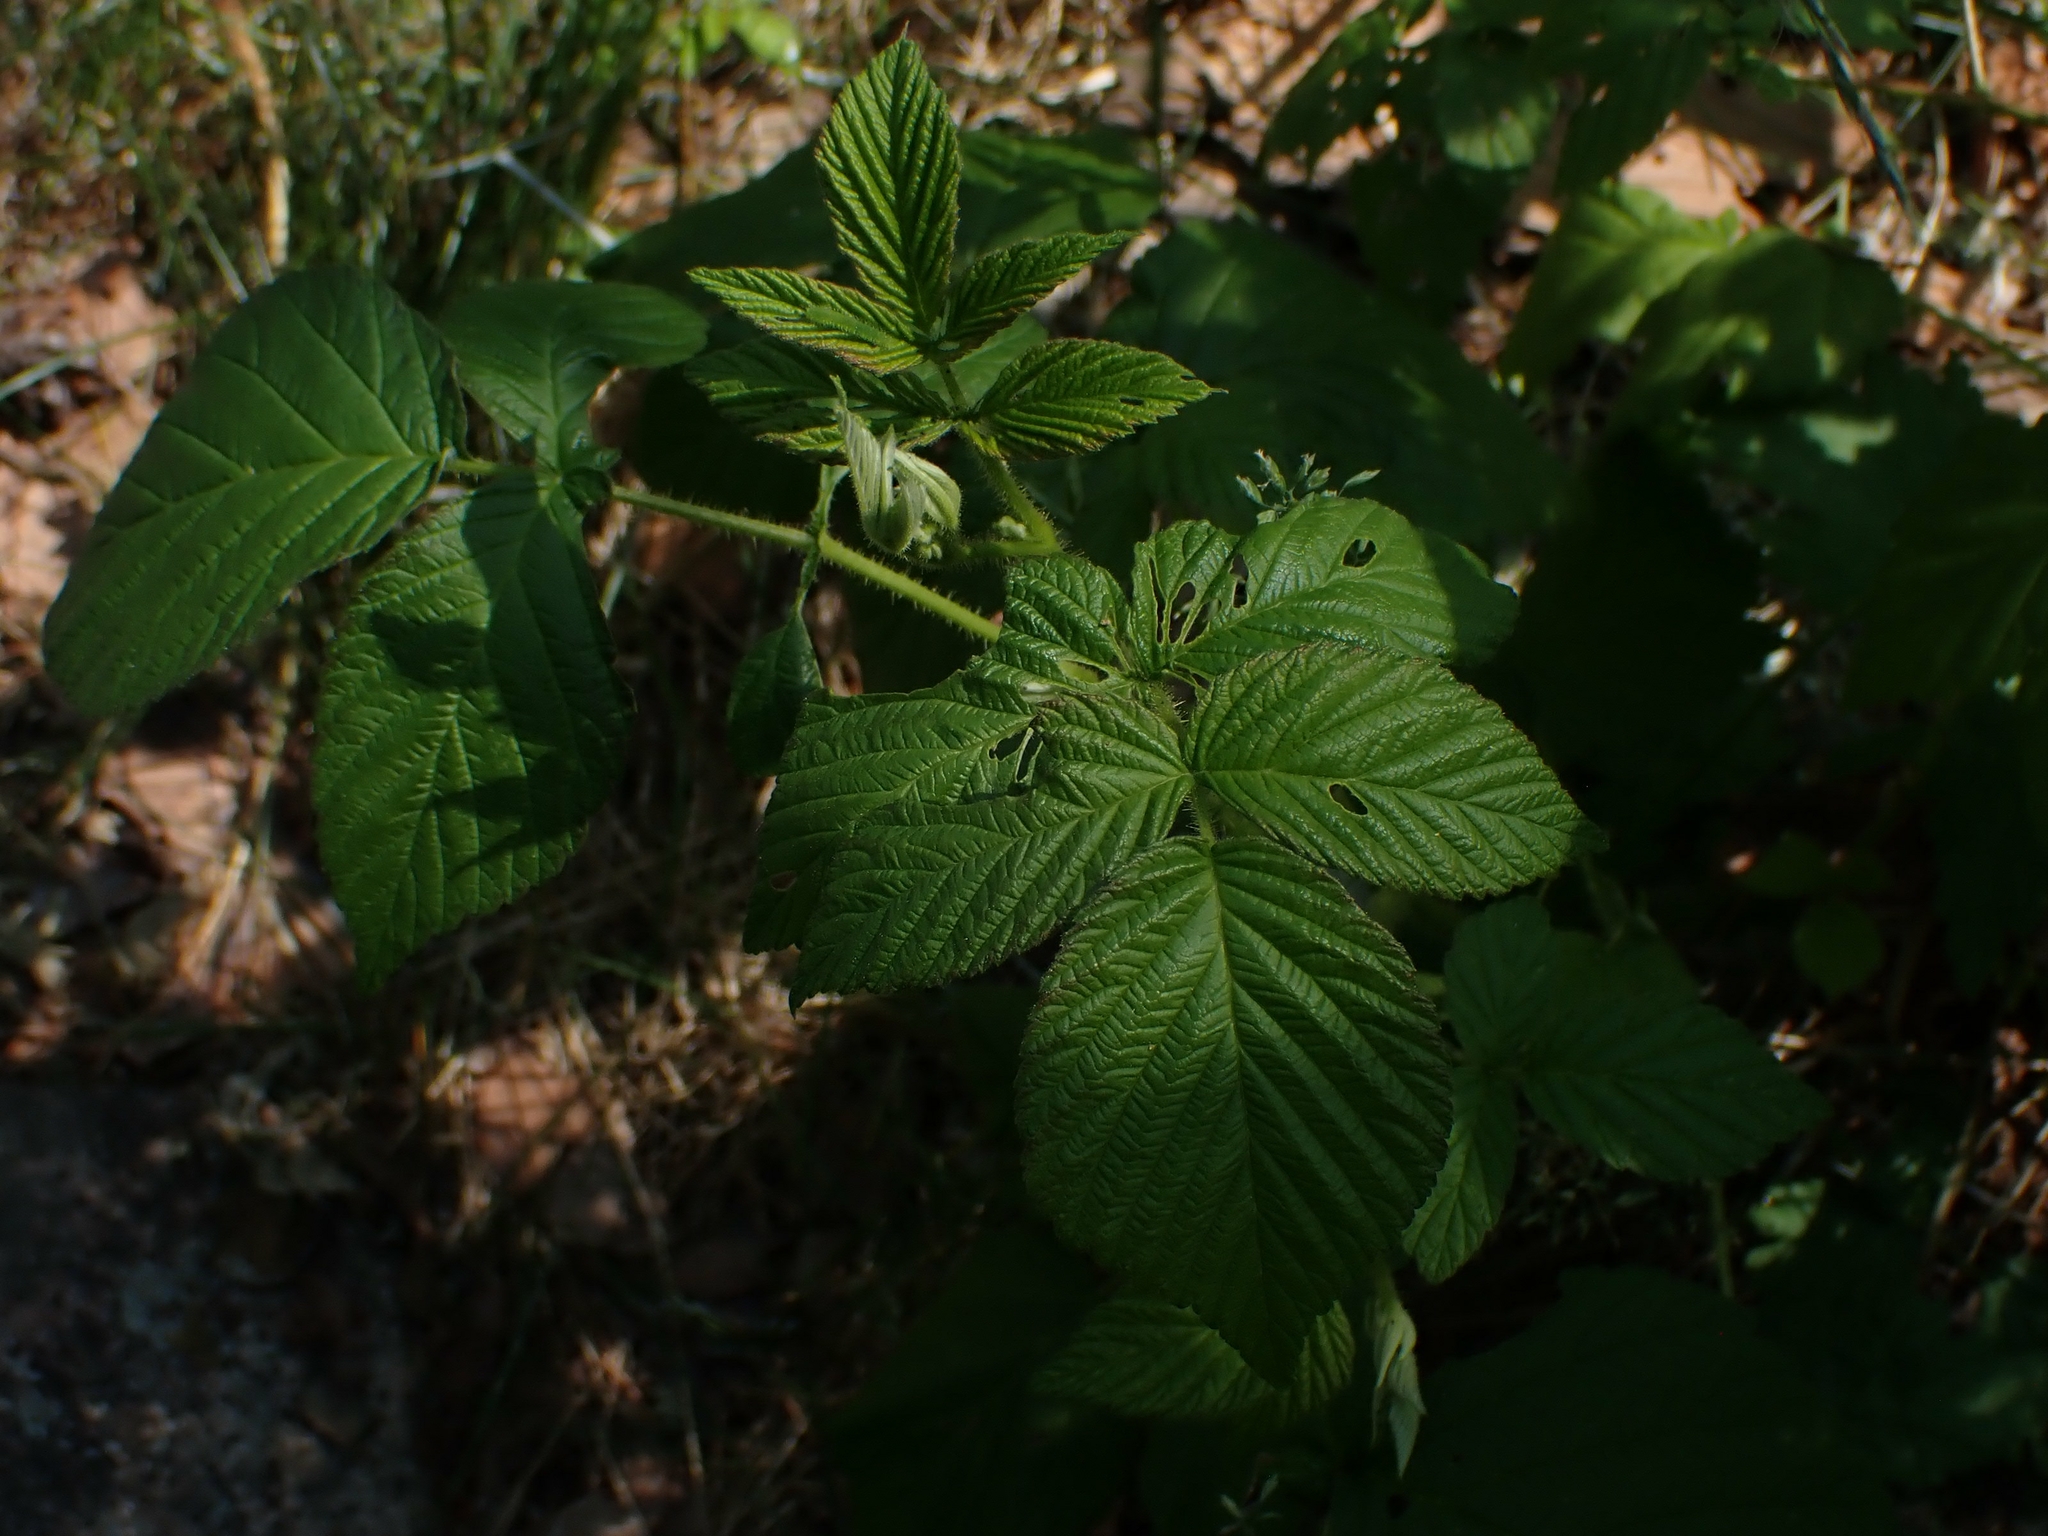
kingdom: Plantae
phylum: Tracheophyta
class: Magnoliopsida
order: Rosales
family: Rosaceae
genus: Rubus
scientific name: Rubus idaeus
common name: Raspberry
